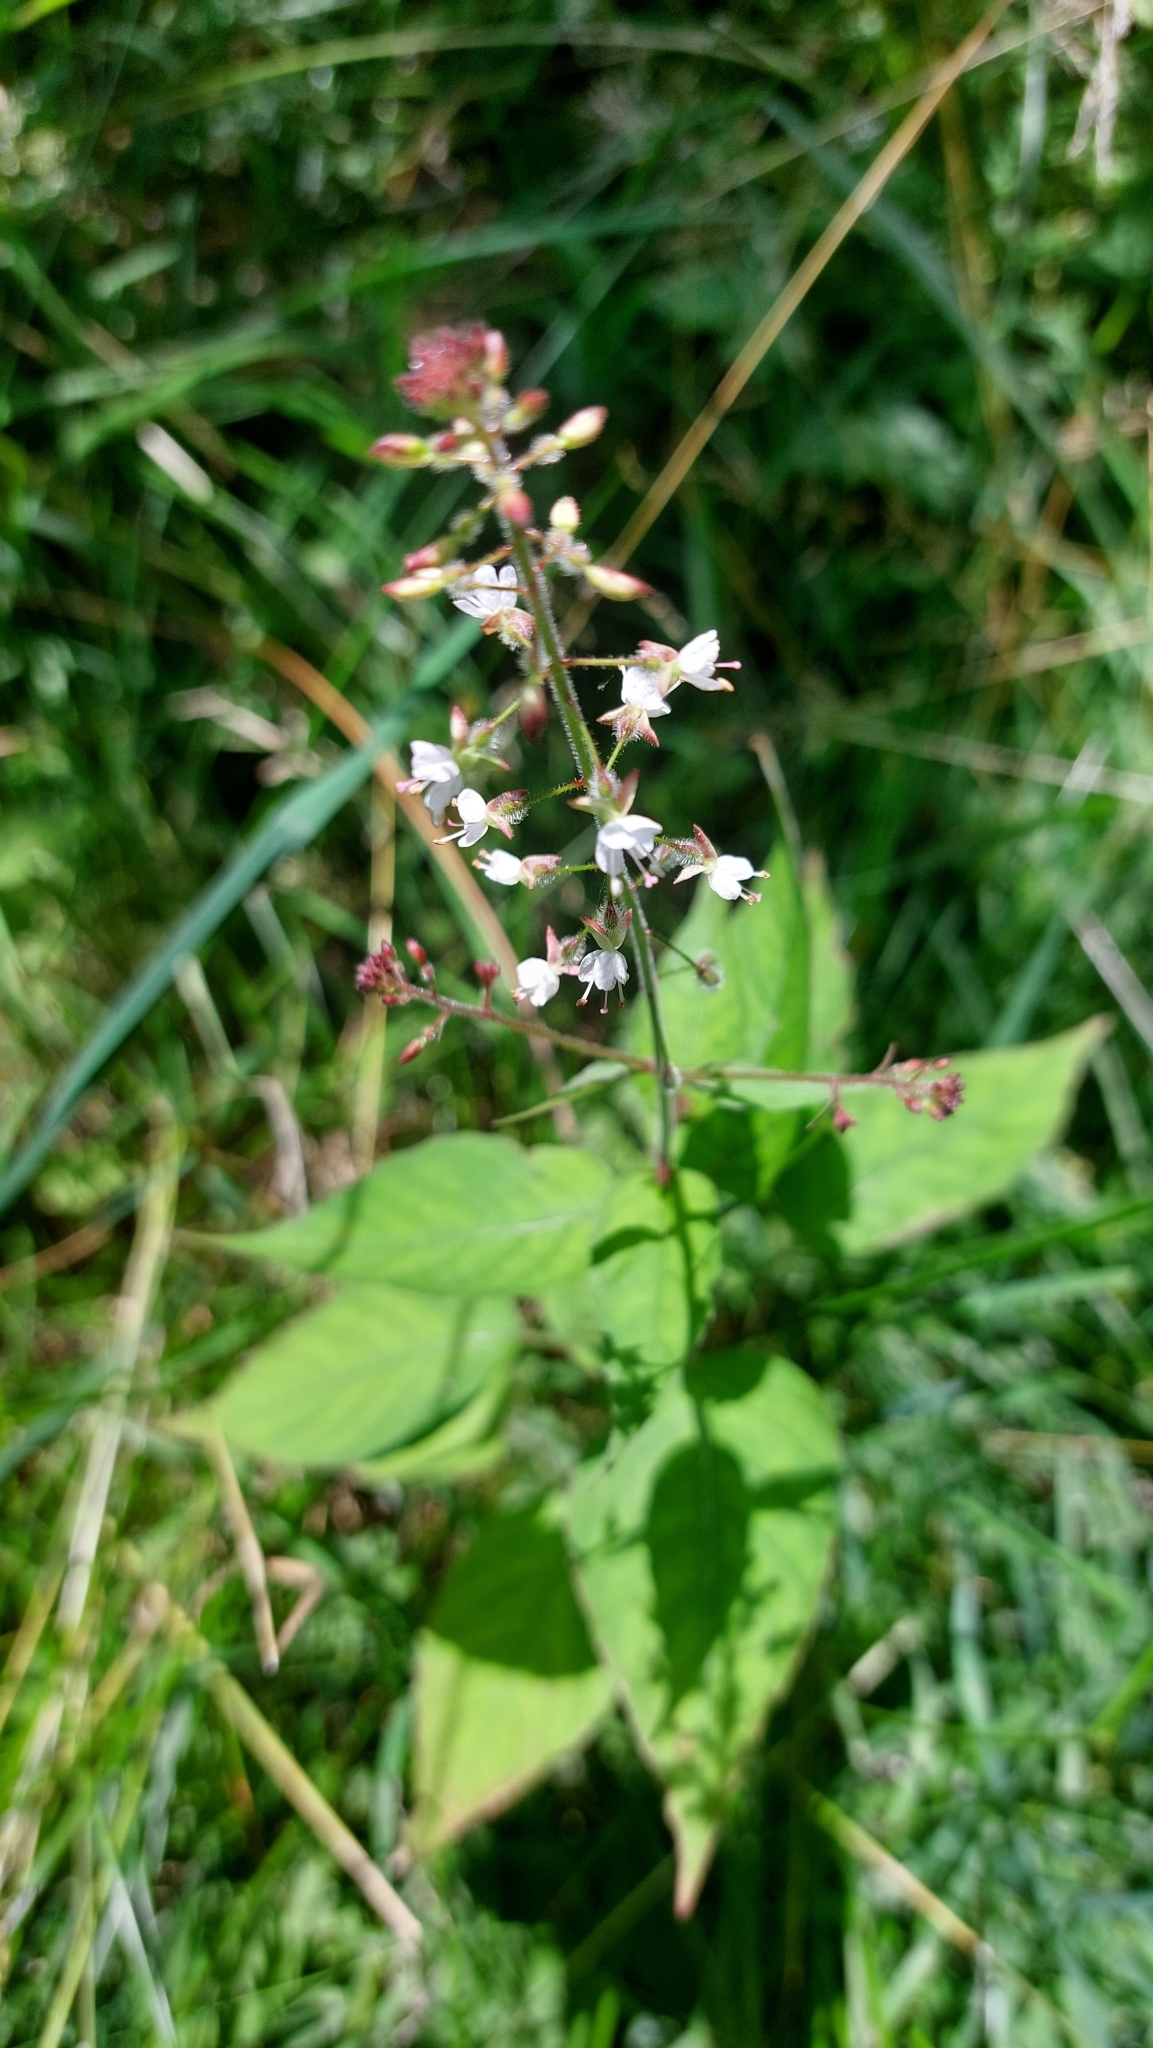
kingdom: Plantae
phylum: Tracheophyta
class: Magnoliopsida
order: Myrtales
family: Onagraceae
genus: Circaea
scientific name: Circaea lutetiana
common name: Enchanter's-nightshade
